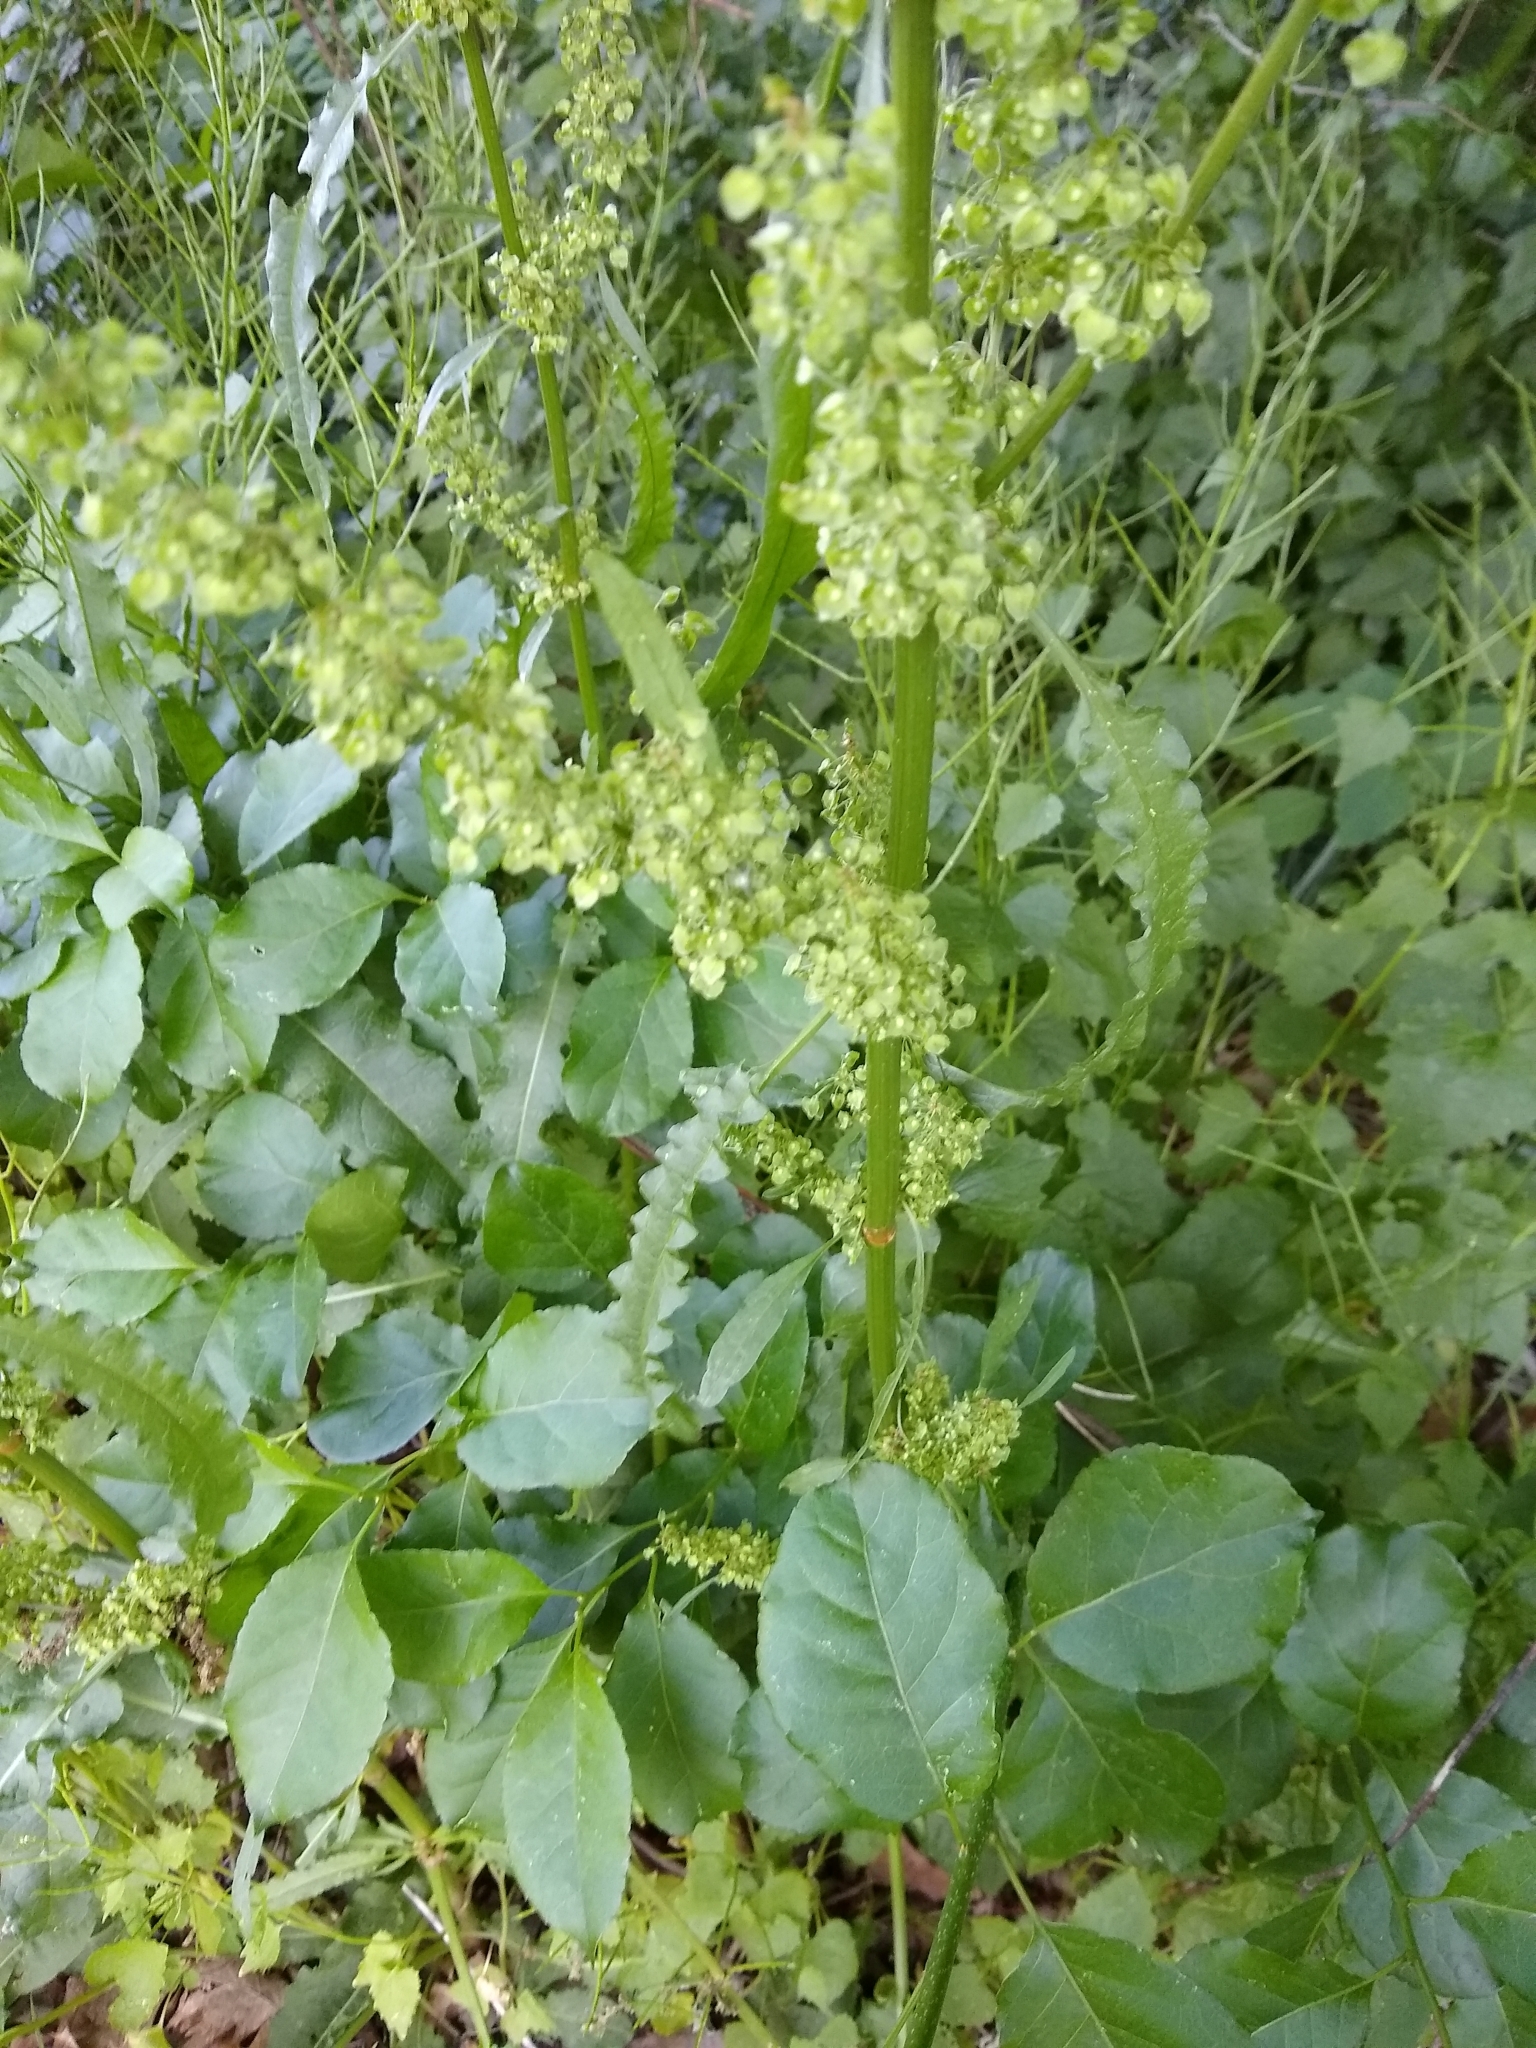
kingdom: Plantae
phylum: Tracheophyta
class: Magnoliopsida
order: Caryophyllales
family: Polygonaceae
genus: Rumex
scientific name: Rumex crispus
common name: Curled dock
